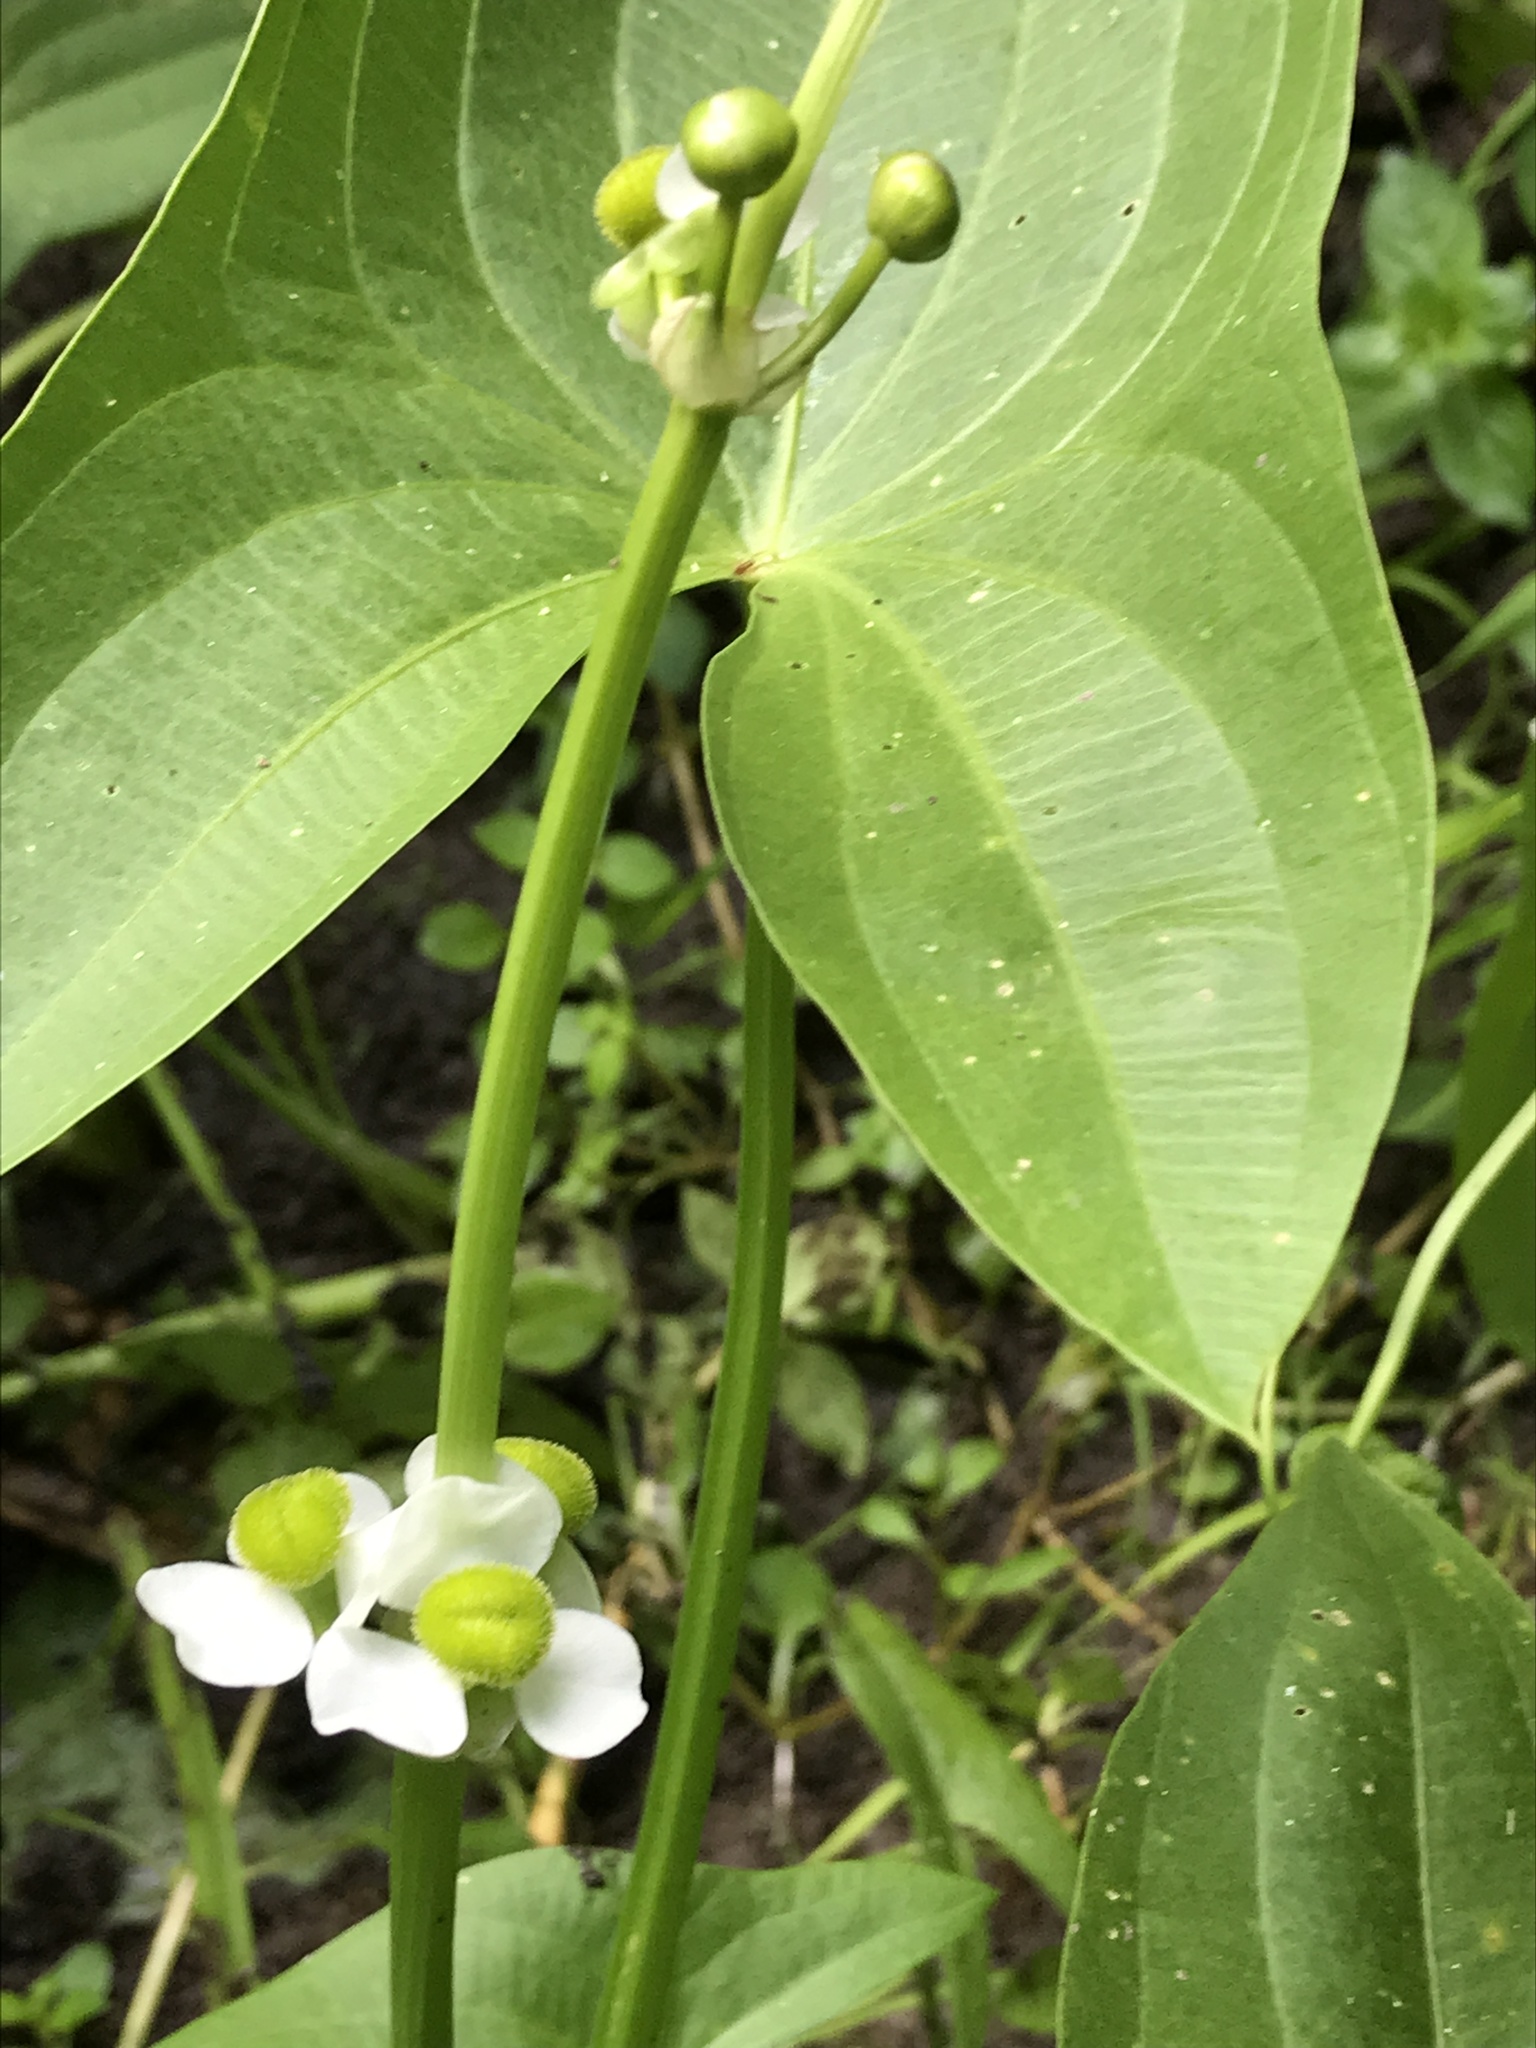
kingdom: Plantae
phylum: Tracheophyta
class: Liliopsida
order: Alismatales
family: Alismataceae
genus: Sagittaria
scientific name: Sagittaria latifolia
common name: Duck-potato
